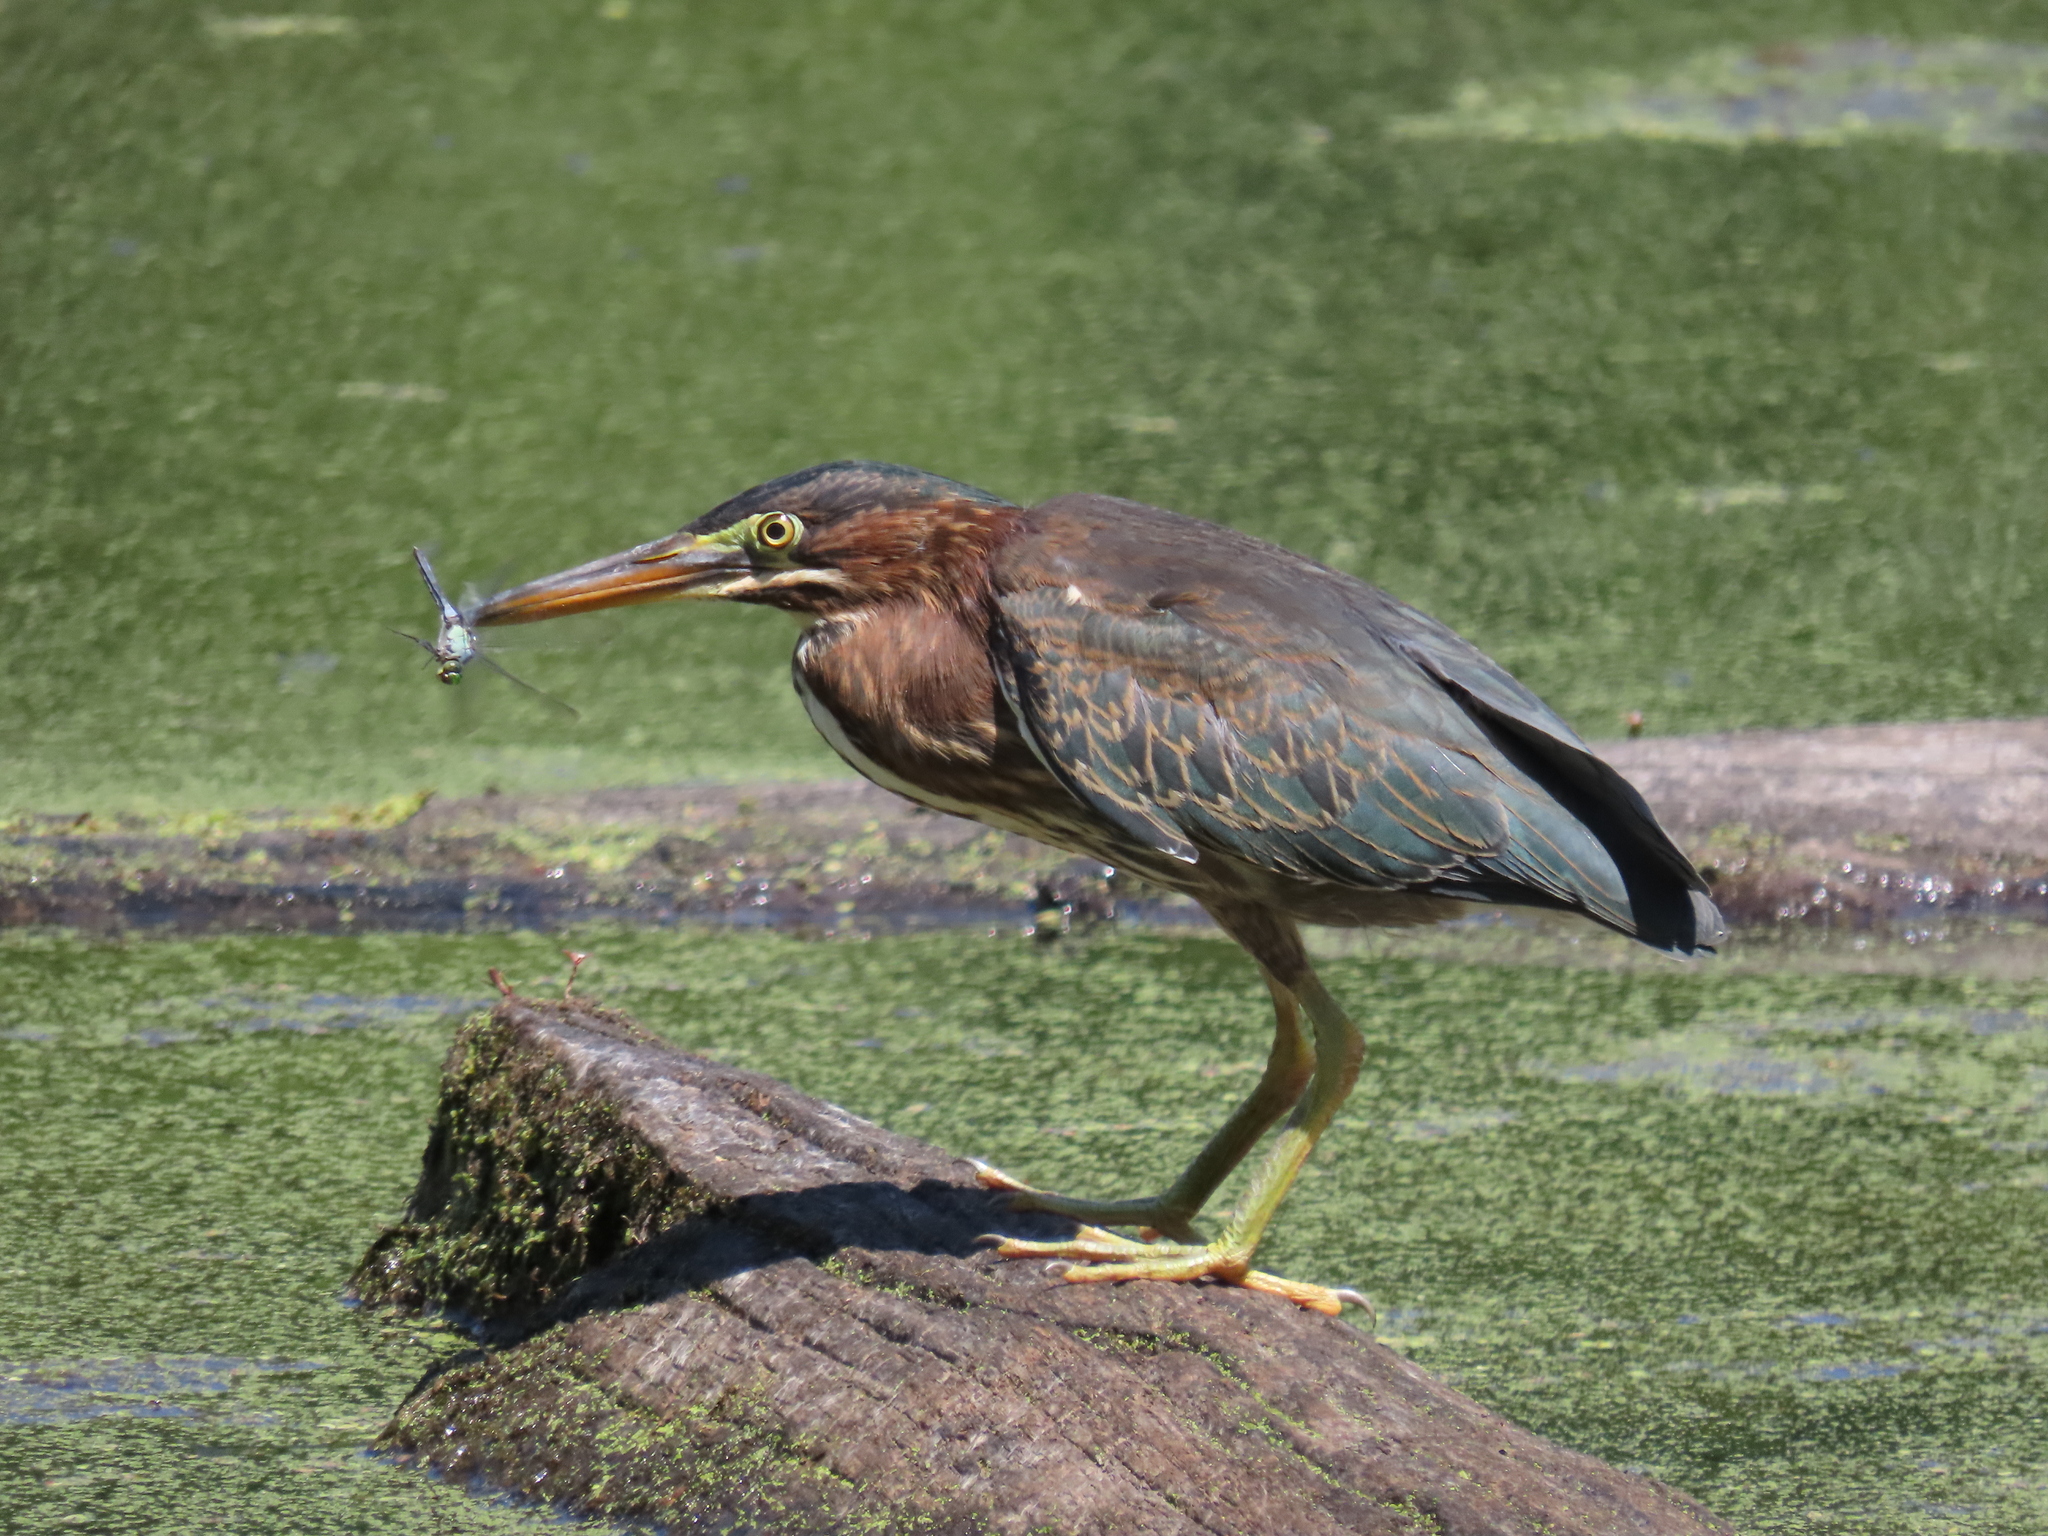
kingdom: Animalia
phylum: Chordata
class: Aves
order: Pelecaniformes
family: Ardeidae
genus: Butorides
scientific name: Butorides virescens
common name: Green heron
